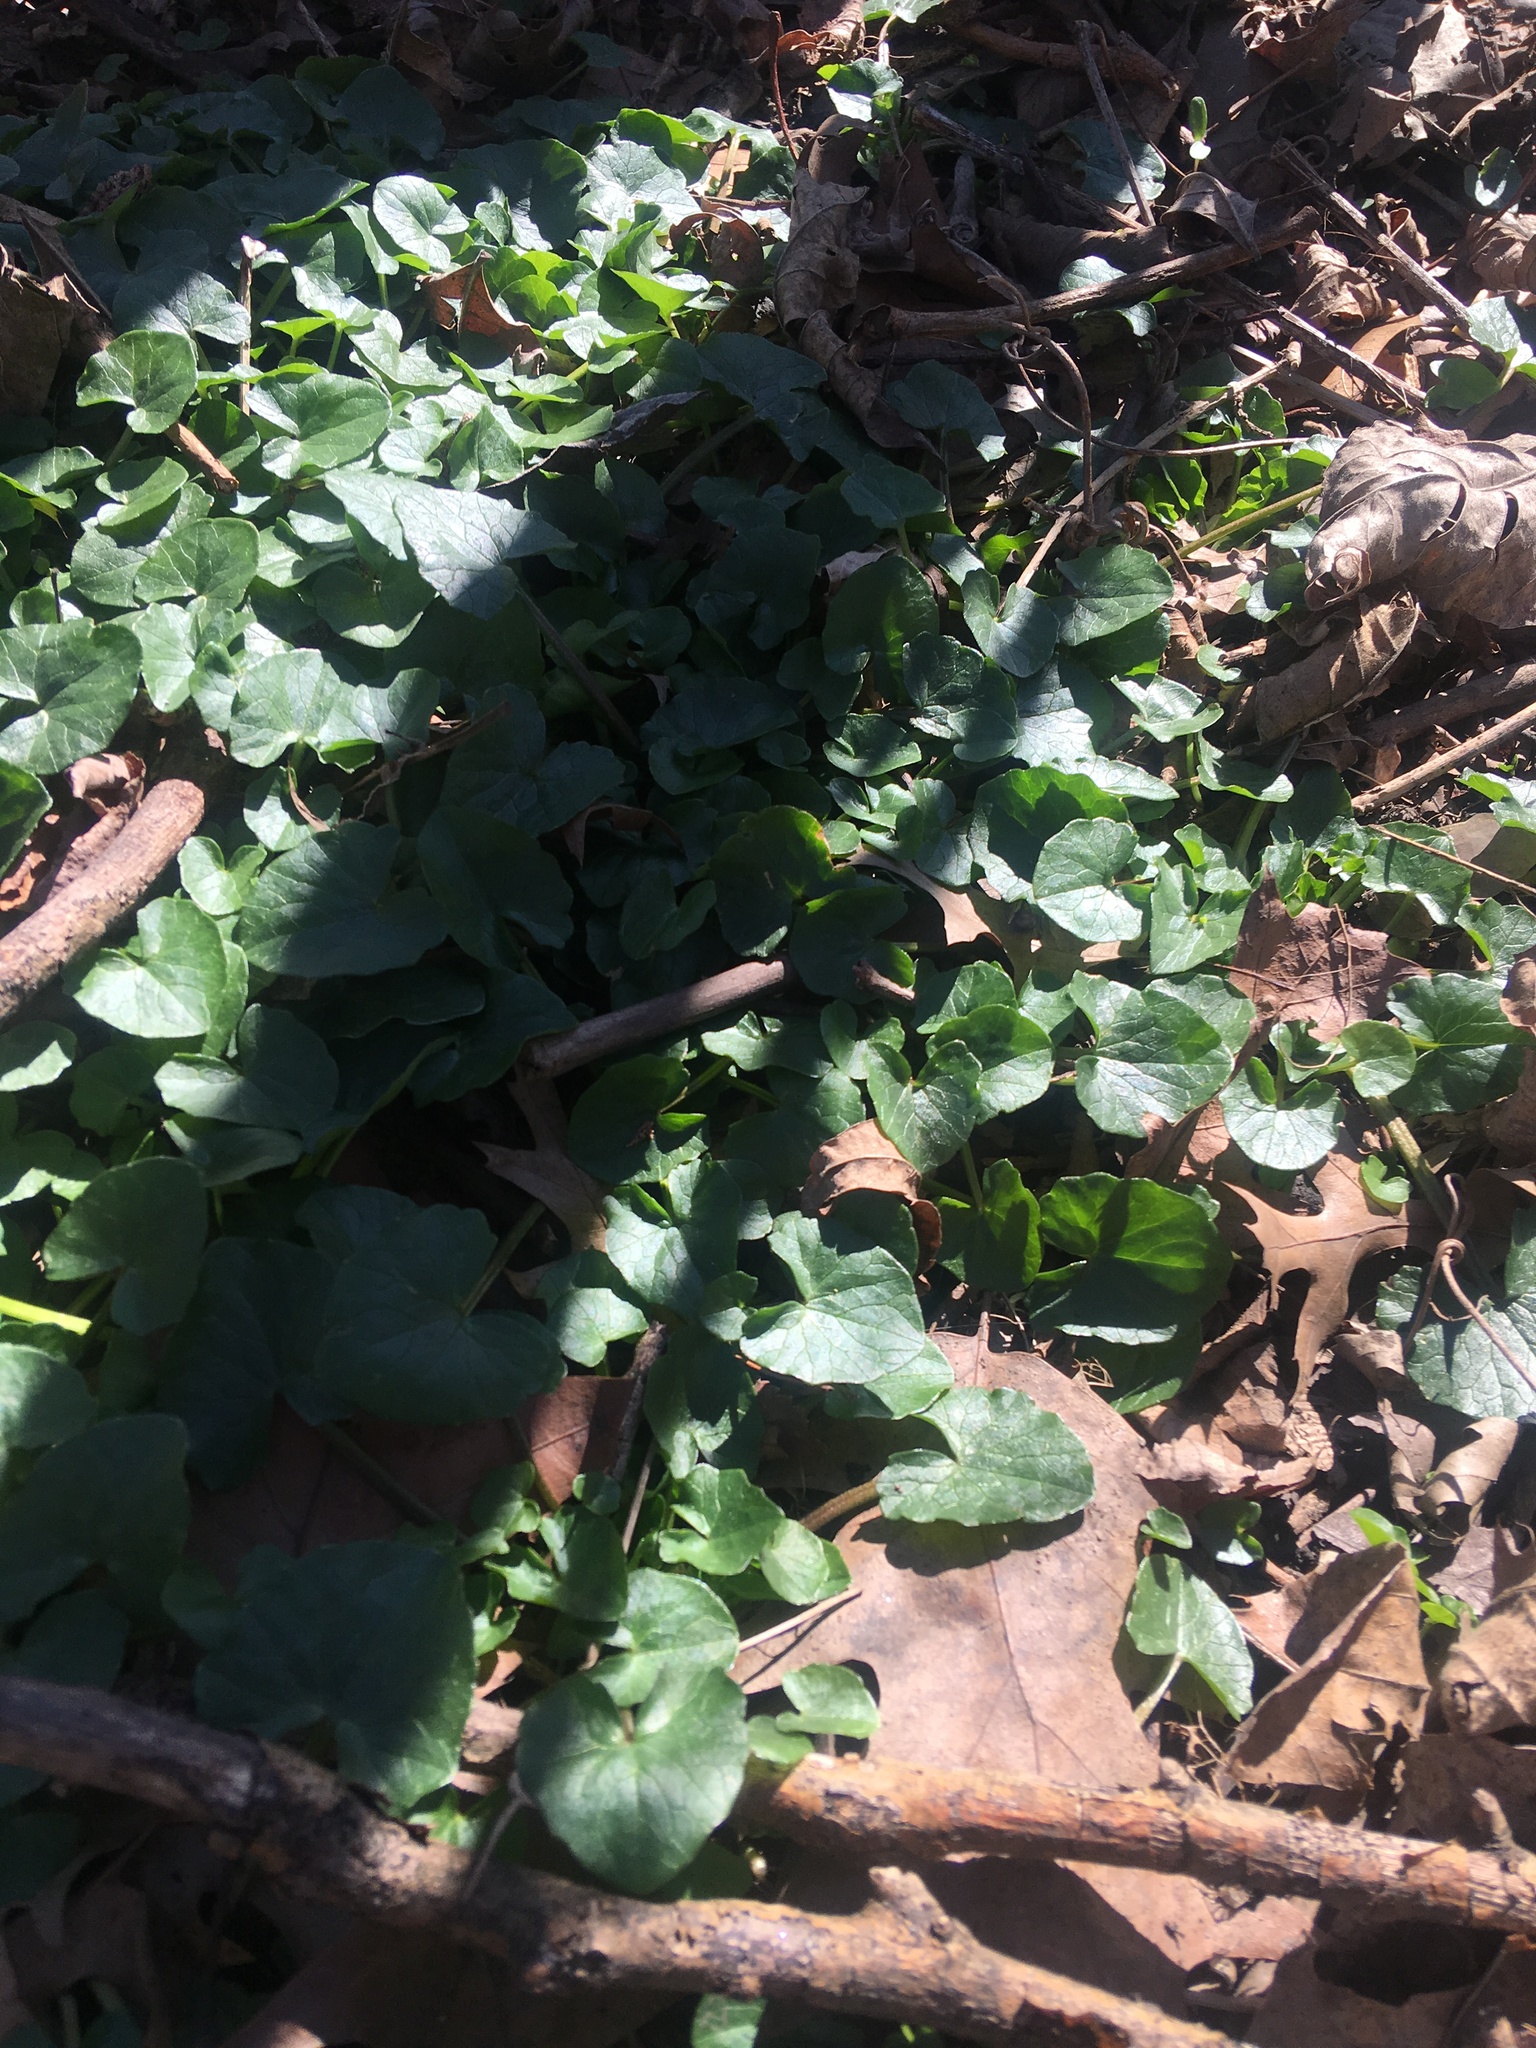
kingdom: Plantae
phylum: Tracheophyta
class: Magnoliopsida
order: Ranunculales
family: Ranunculaceae
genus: Ficaria
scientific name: Ficaria verna
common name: Lesser celandine
